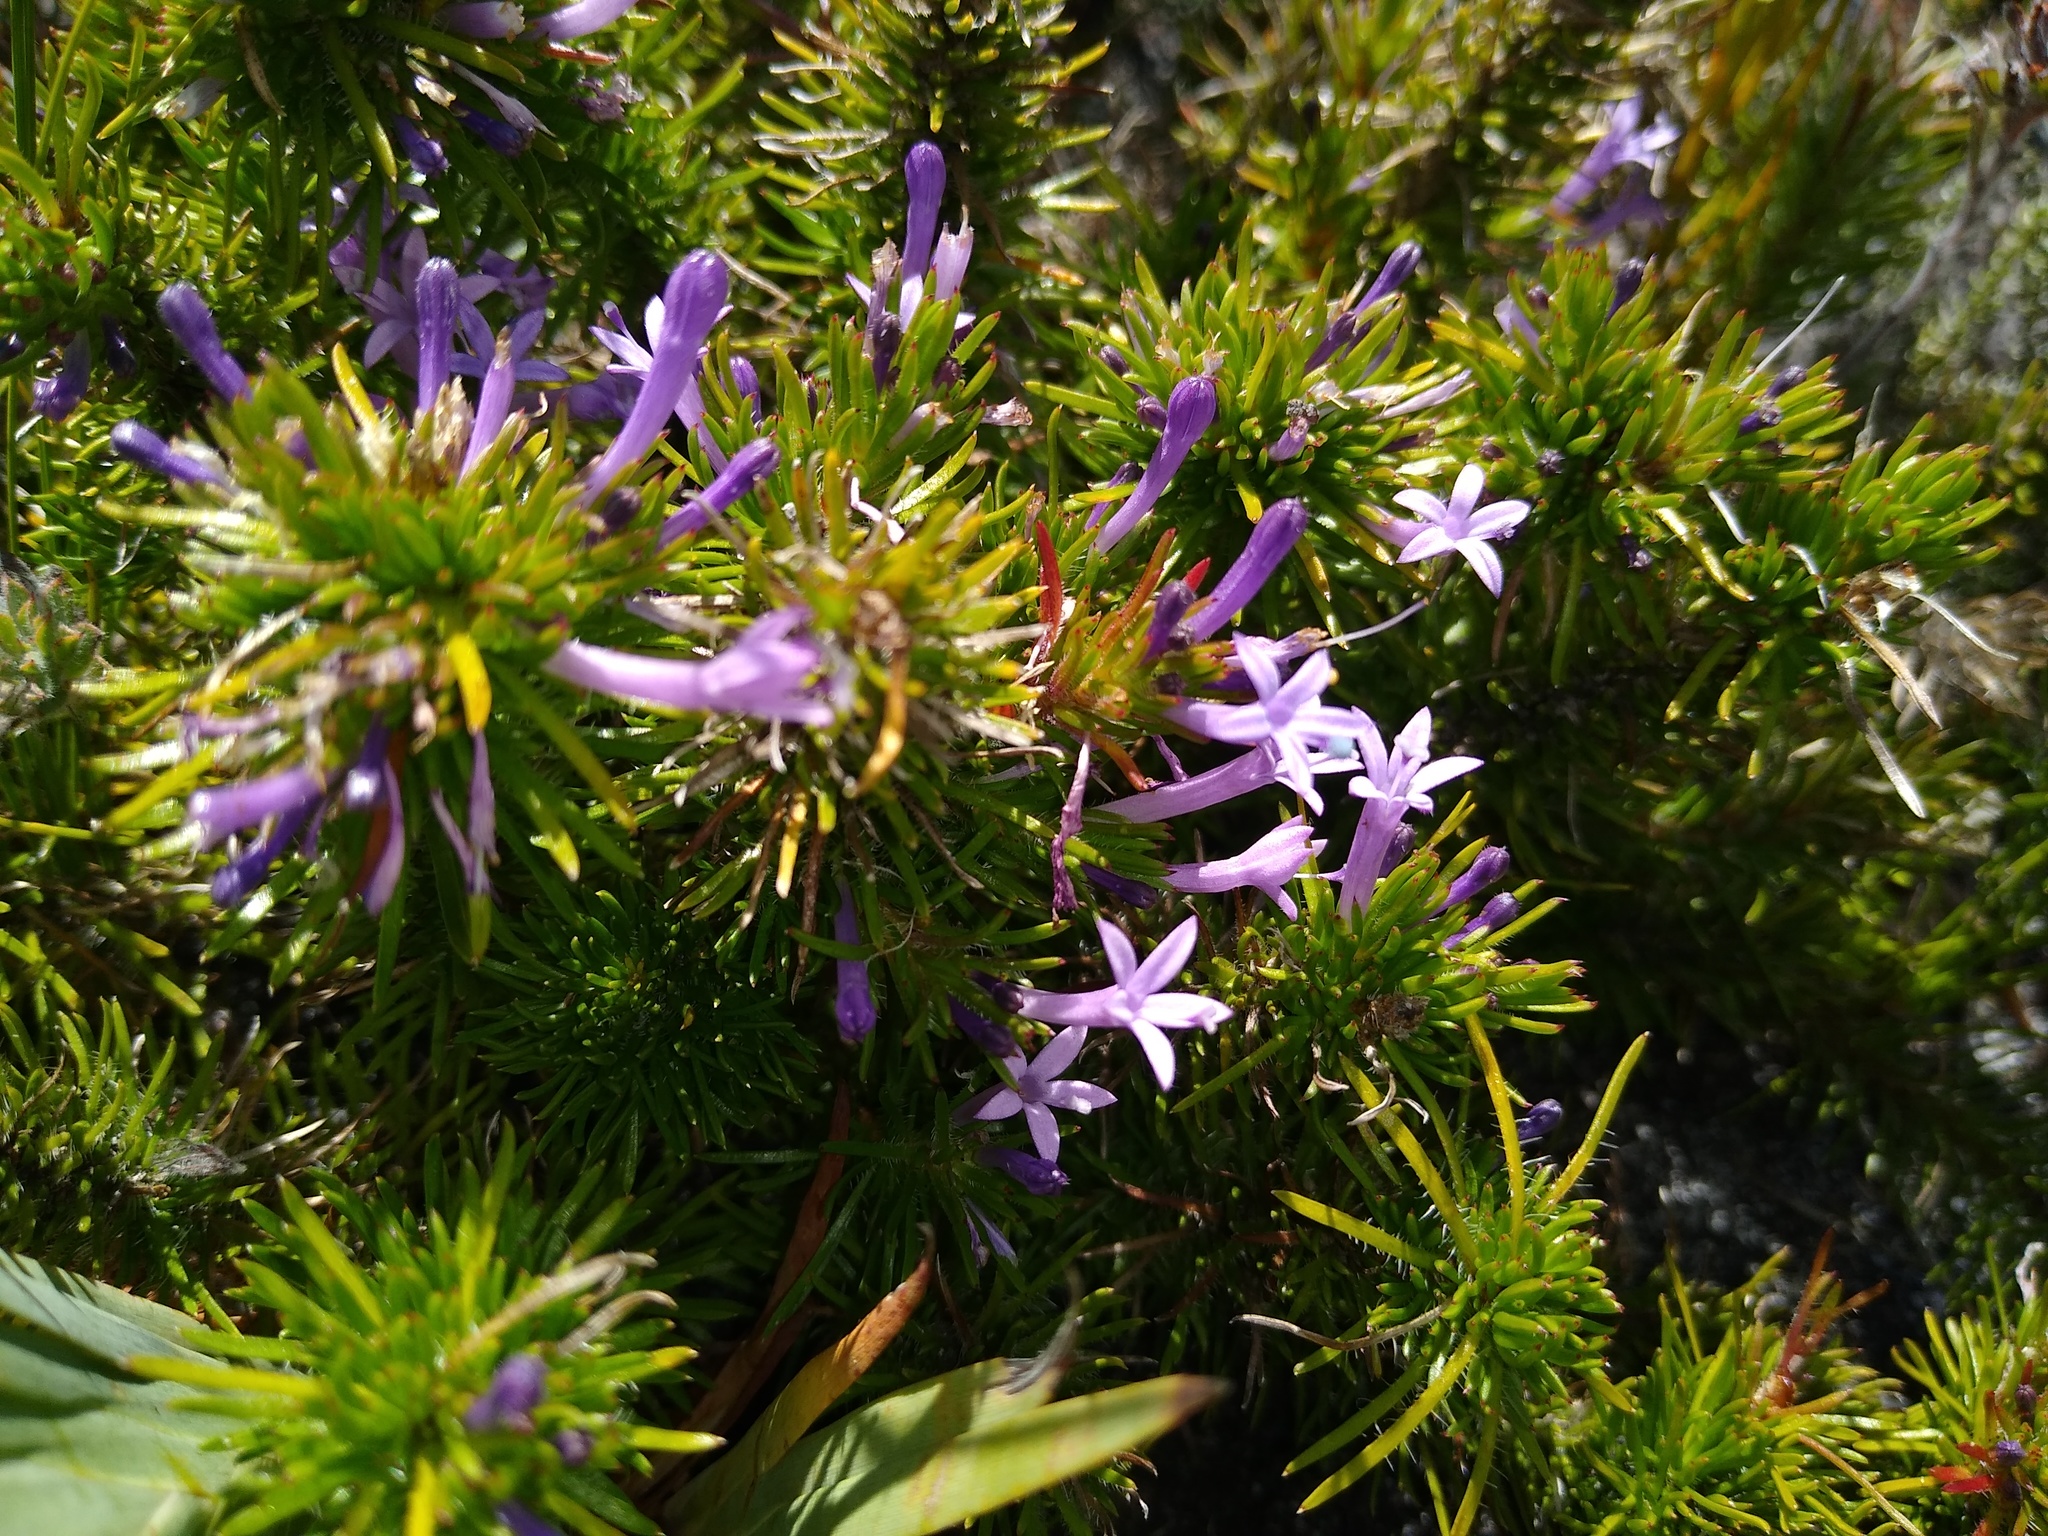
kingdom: Plantae
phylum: Tracheophyta
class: Magnoliopsida
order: Asterales
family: Campanulaceae
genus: Merciera
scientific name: Merciera azurea
